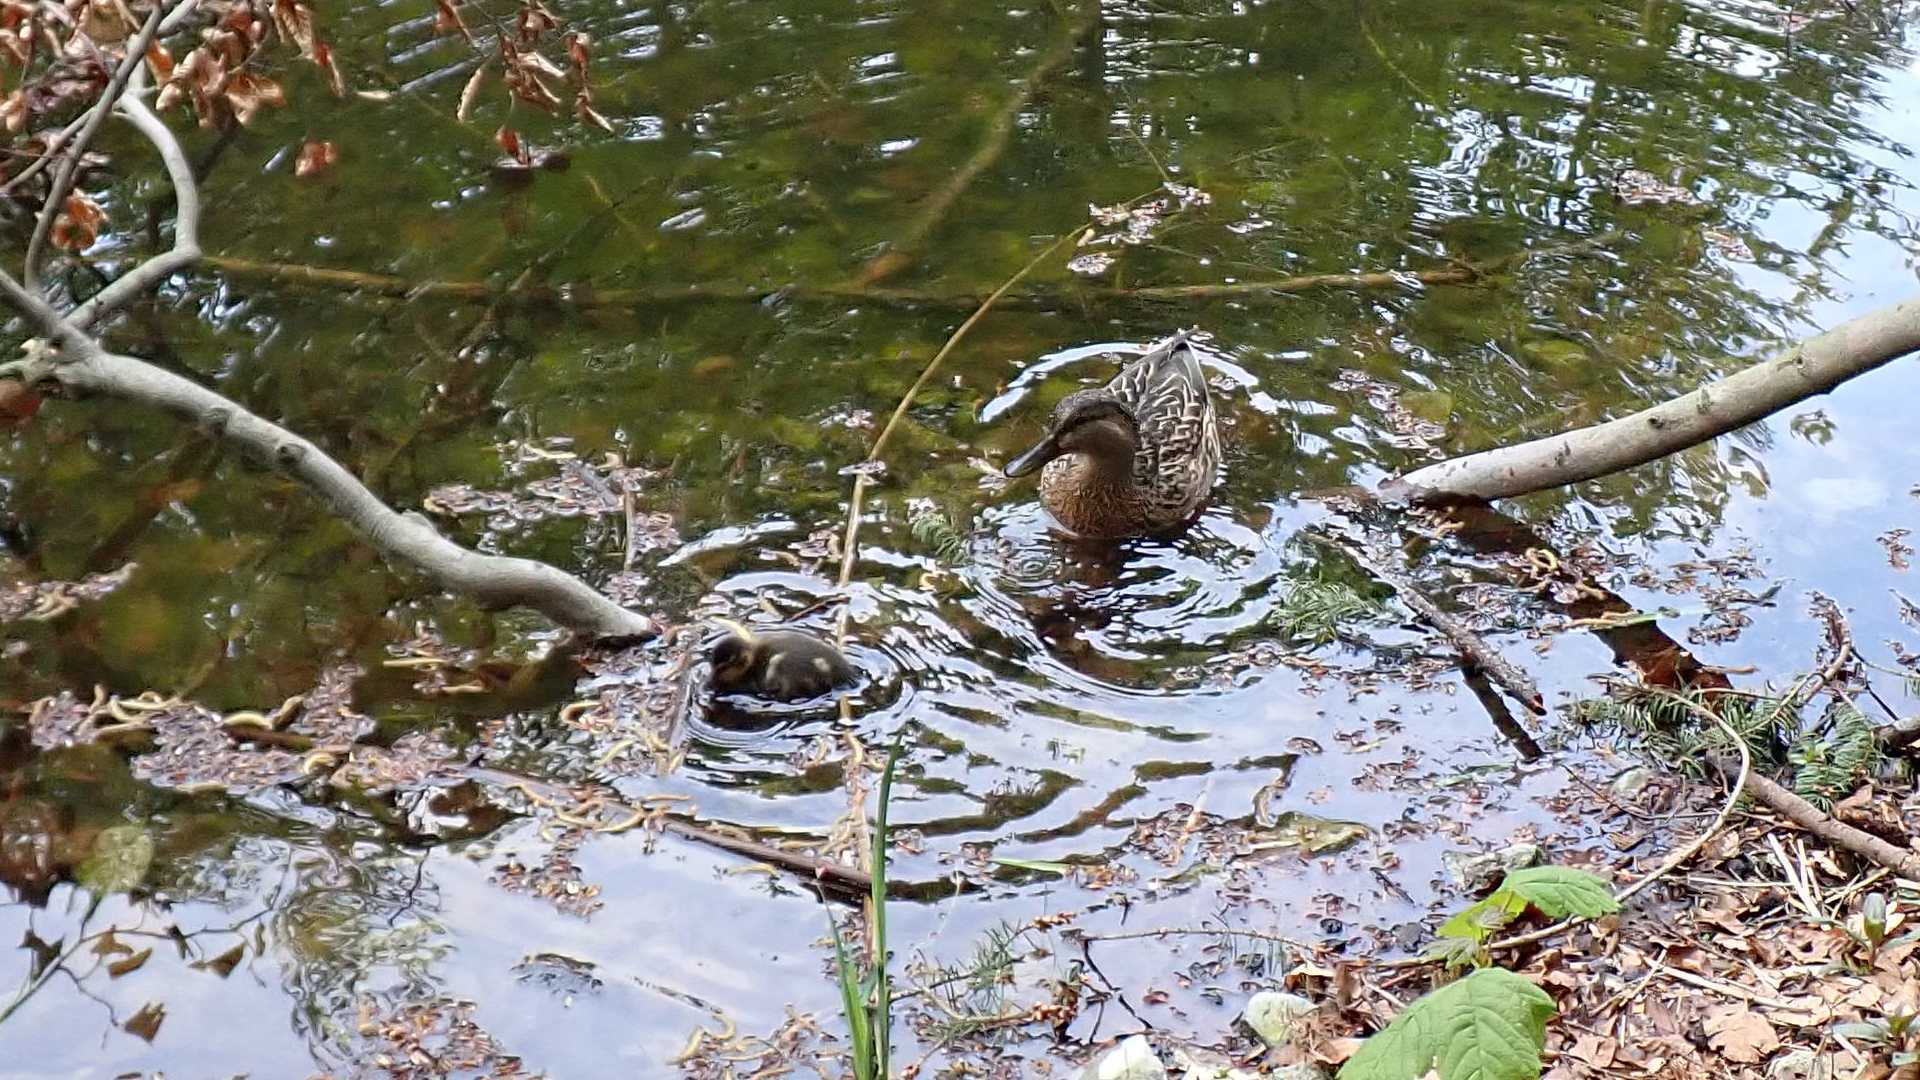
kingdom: Animalia
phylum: Chordata
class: Aves
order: Anseriformes
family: Anatidae
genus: Anas
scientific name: Anas platyrhynchos
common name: Mallard
